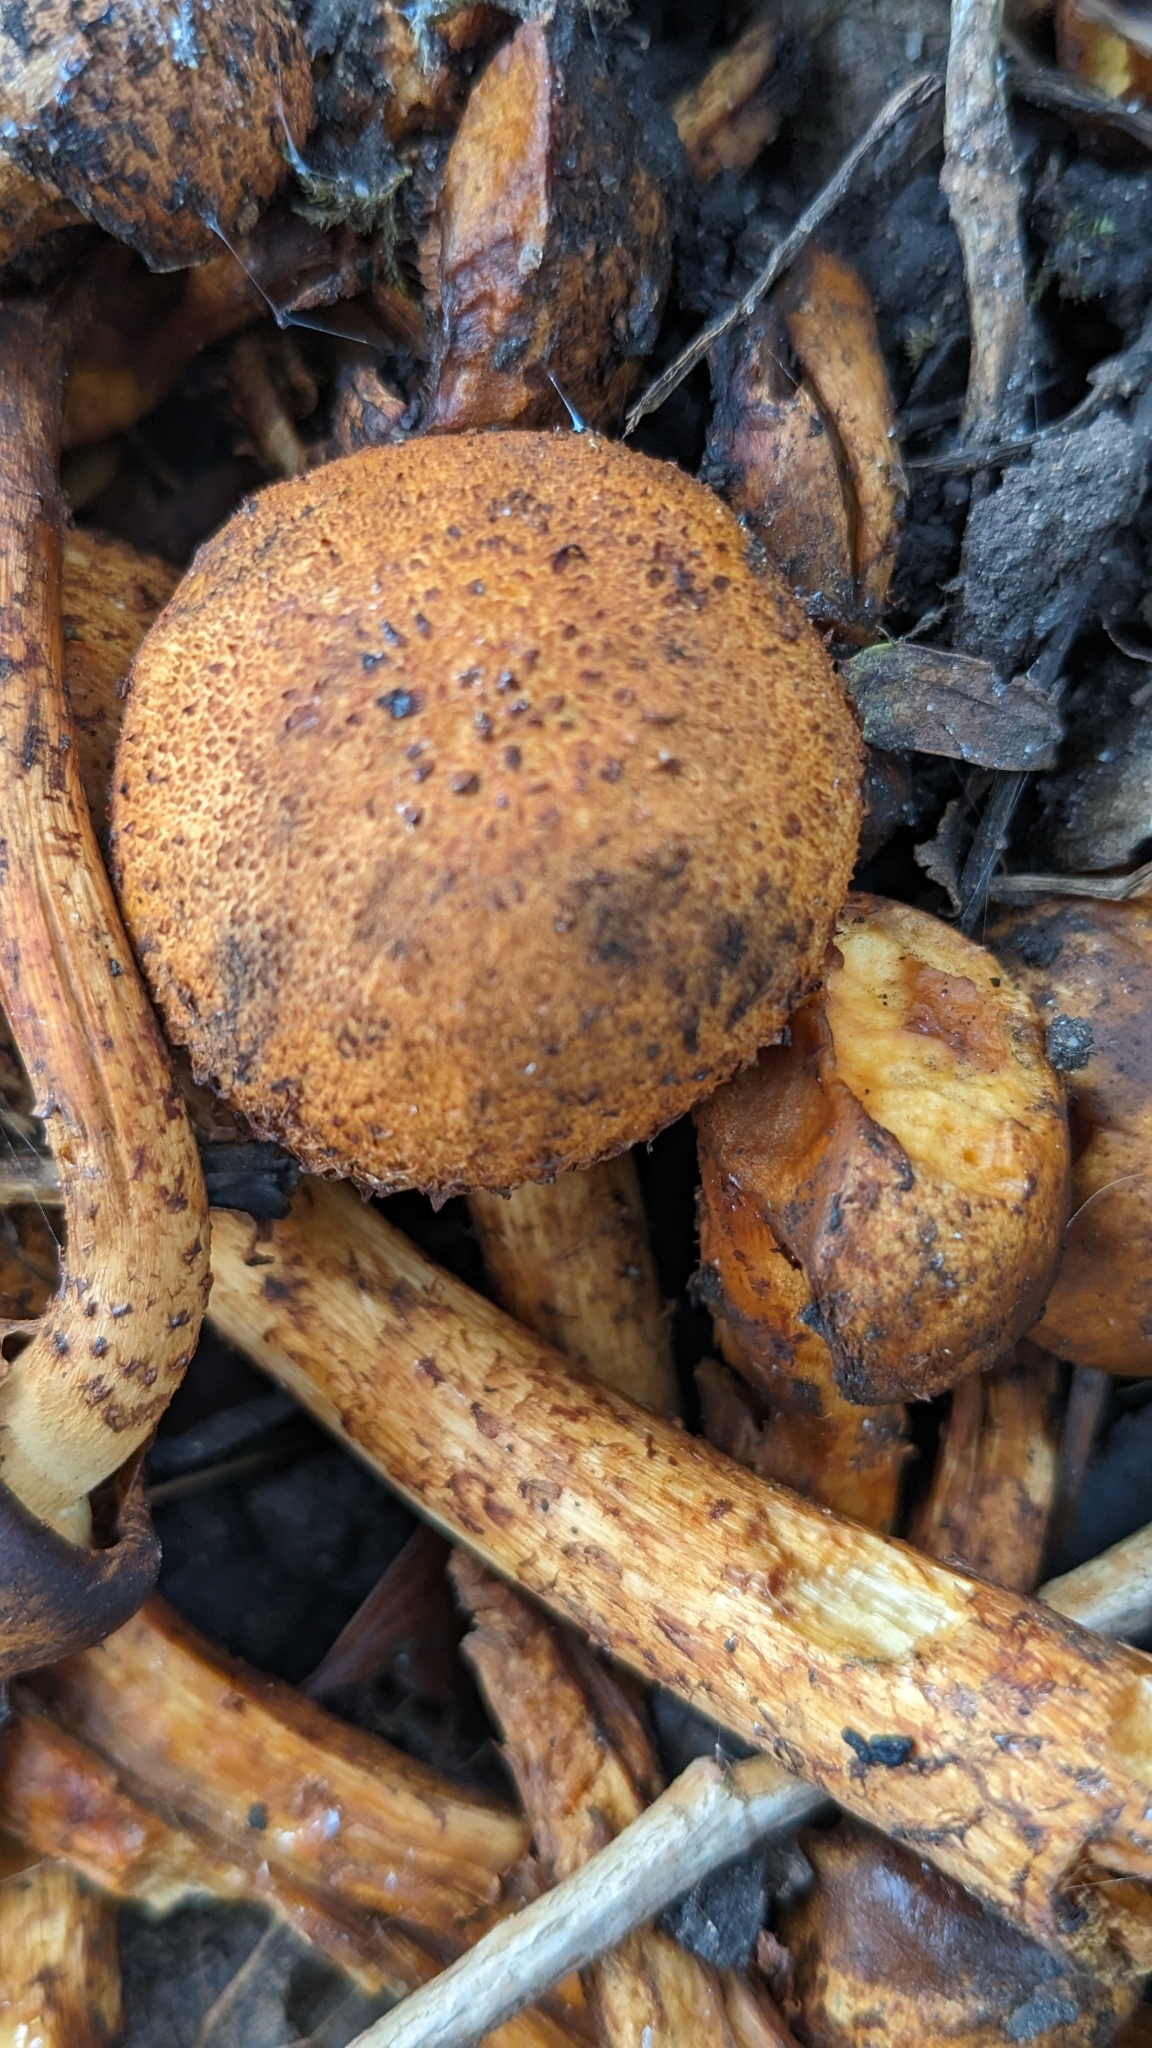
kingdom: Fungi
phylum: Basidiomycota
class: Agaricomycetes
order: Agaricales
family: Strophariaceae
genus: Pholiota
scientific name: Pholiota squarrosa
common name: Shaggy pholiota
